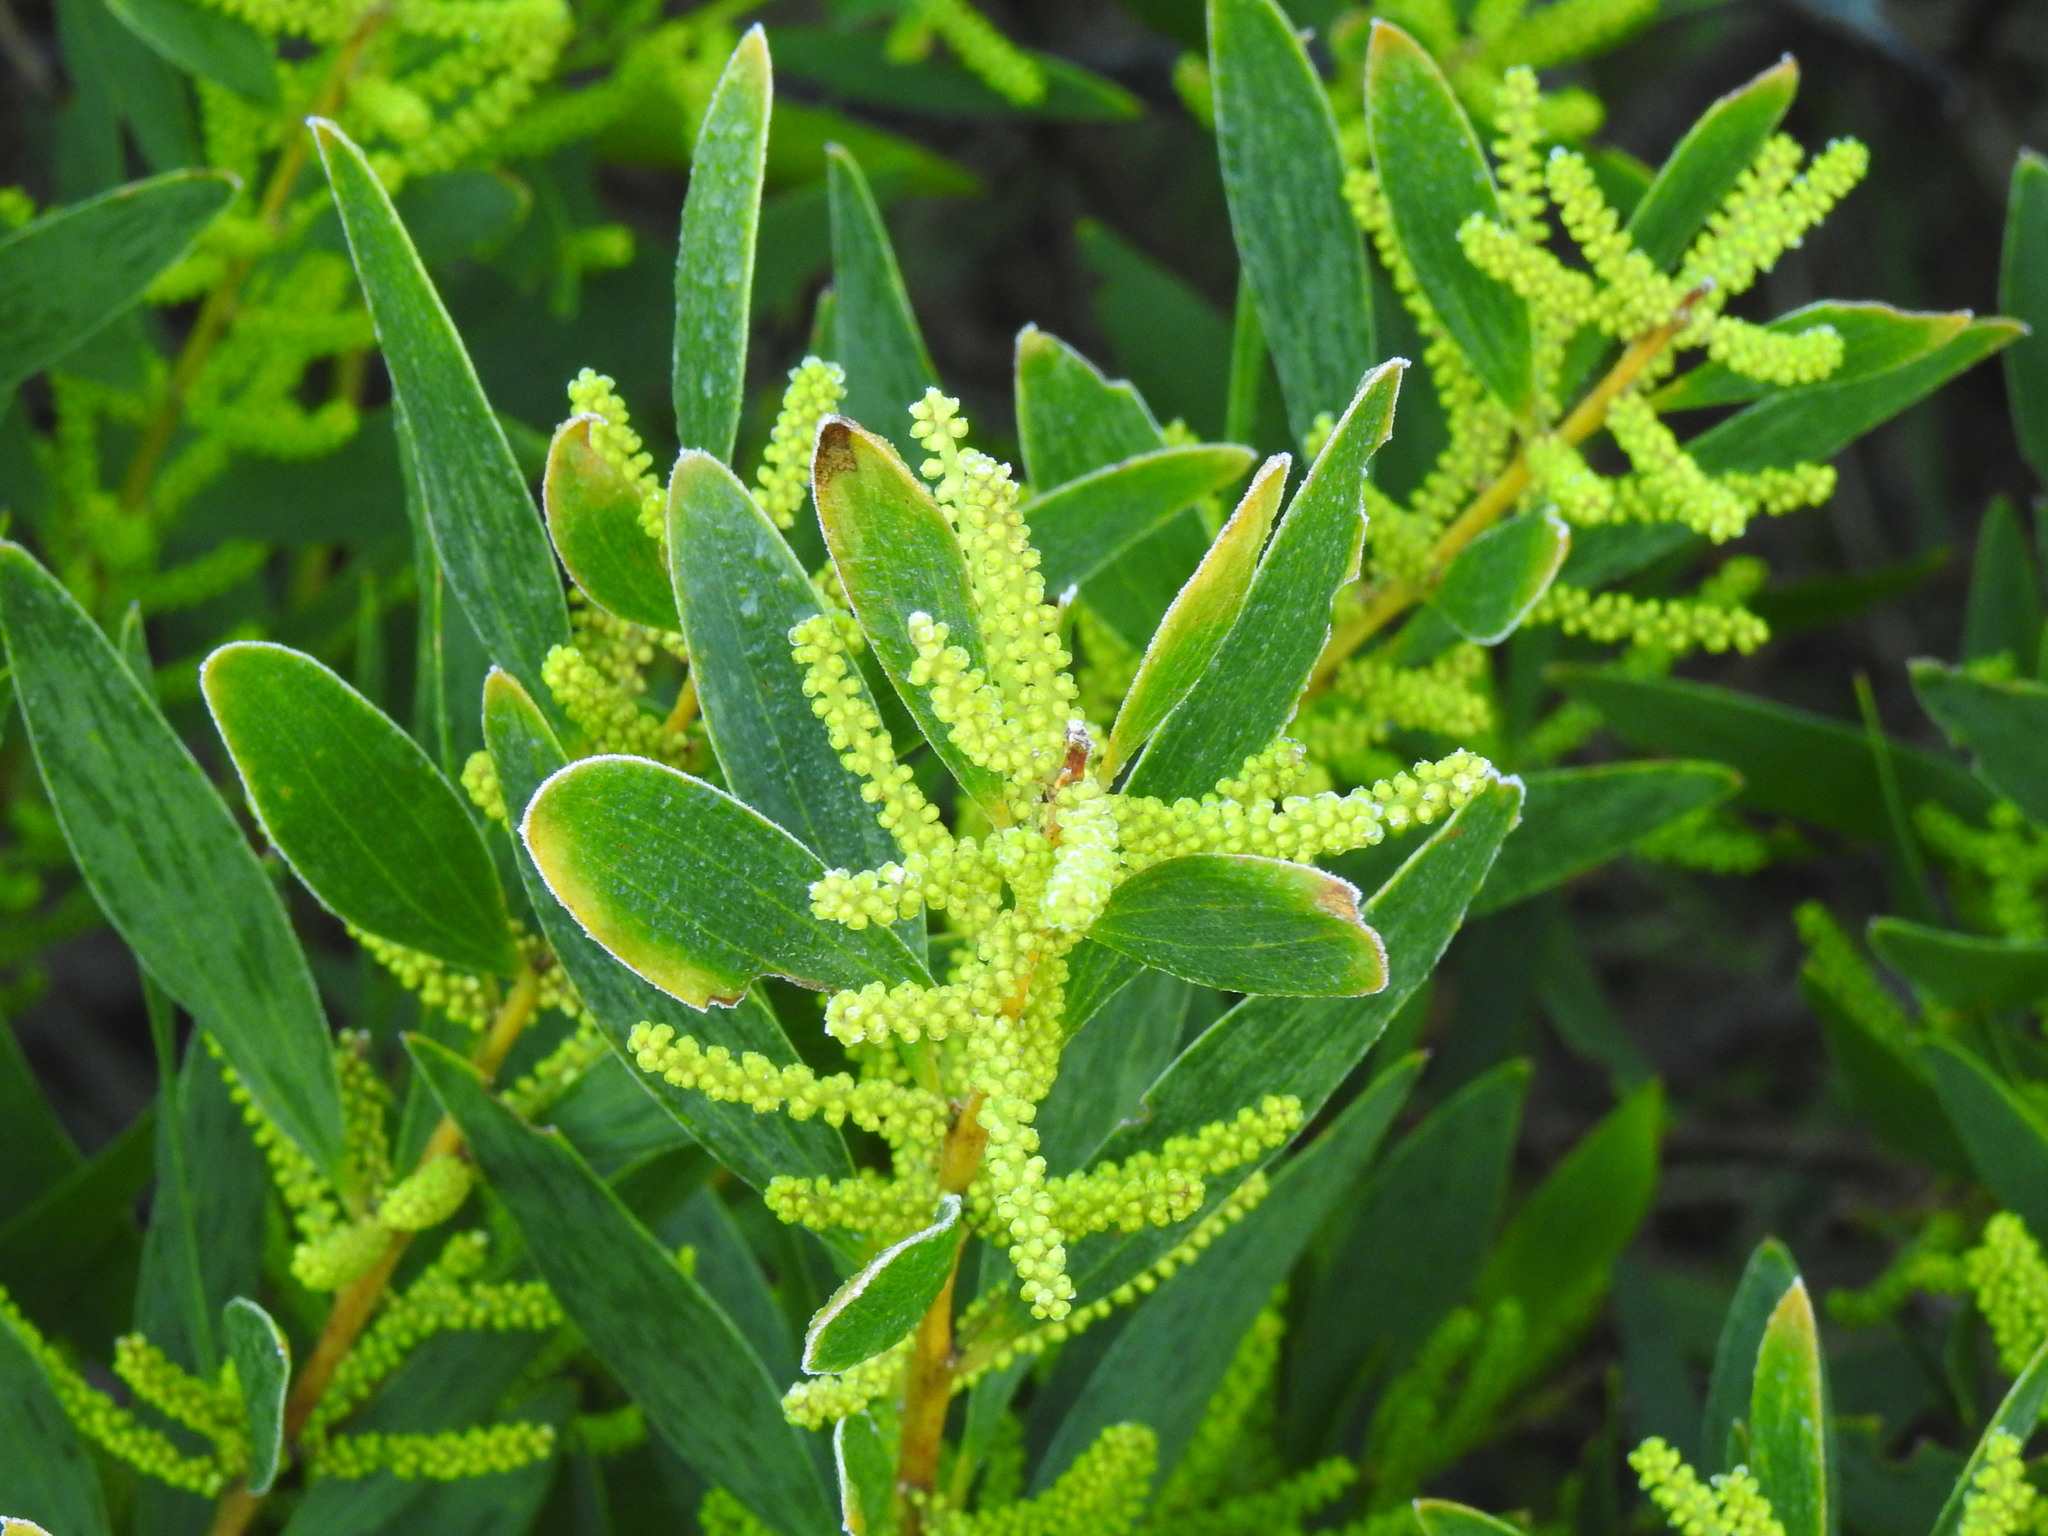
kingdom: Plantae
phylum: Tracheophyta
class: Magnoliopsida
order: Fabales
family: Fabaceae
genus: Acacia
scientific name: Acacia longifolia
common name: Sydney golden wattle
